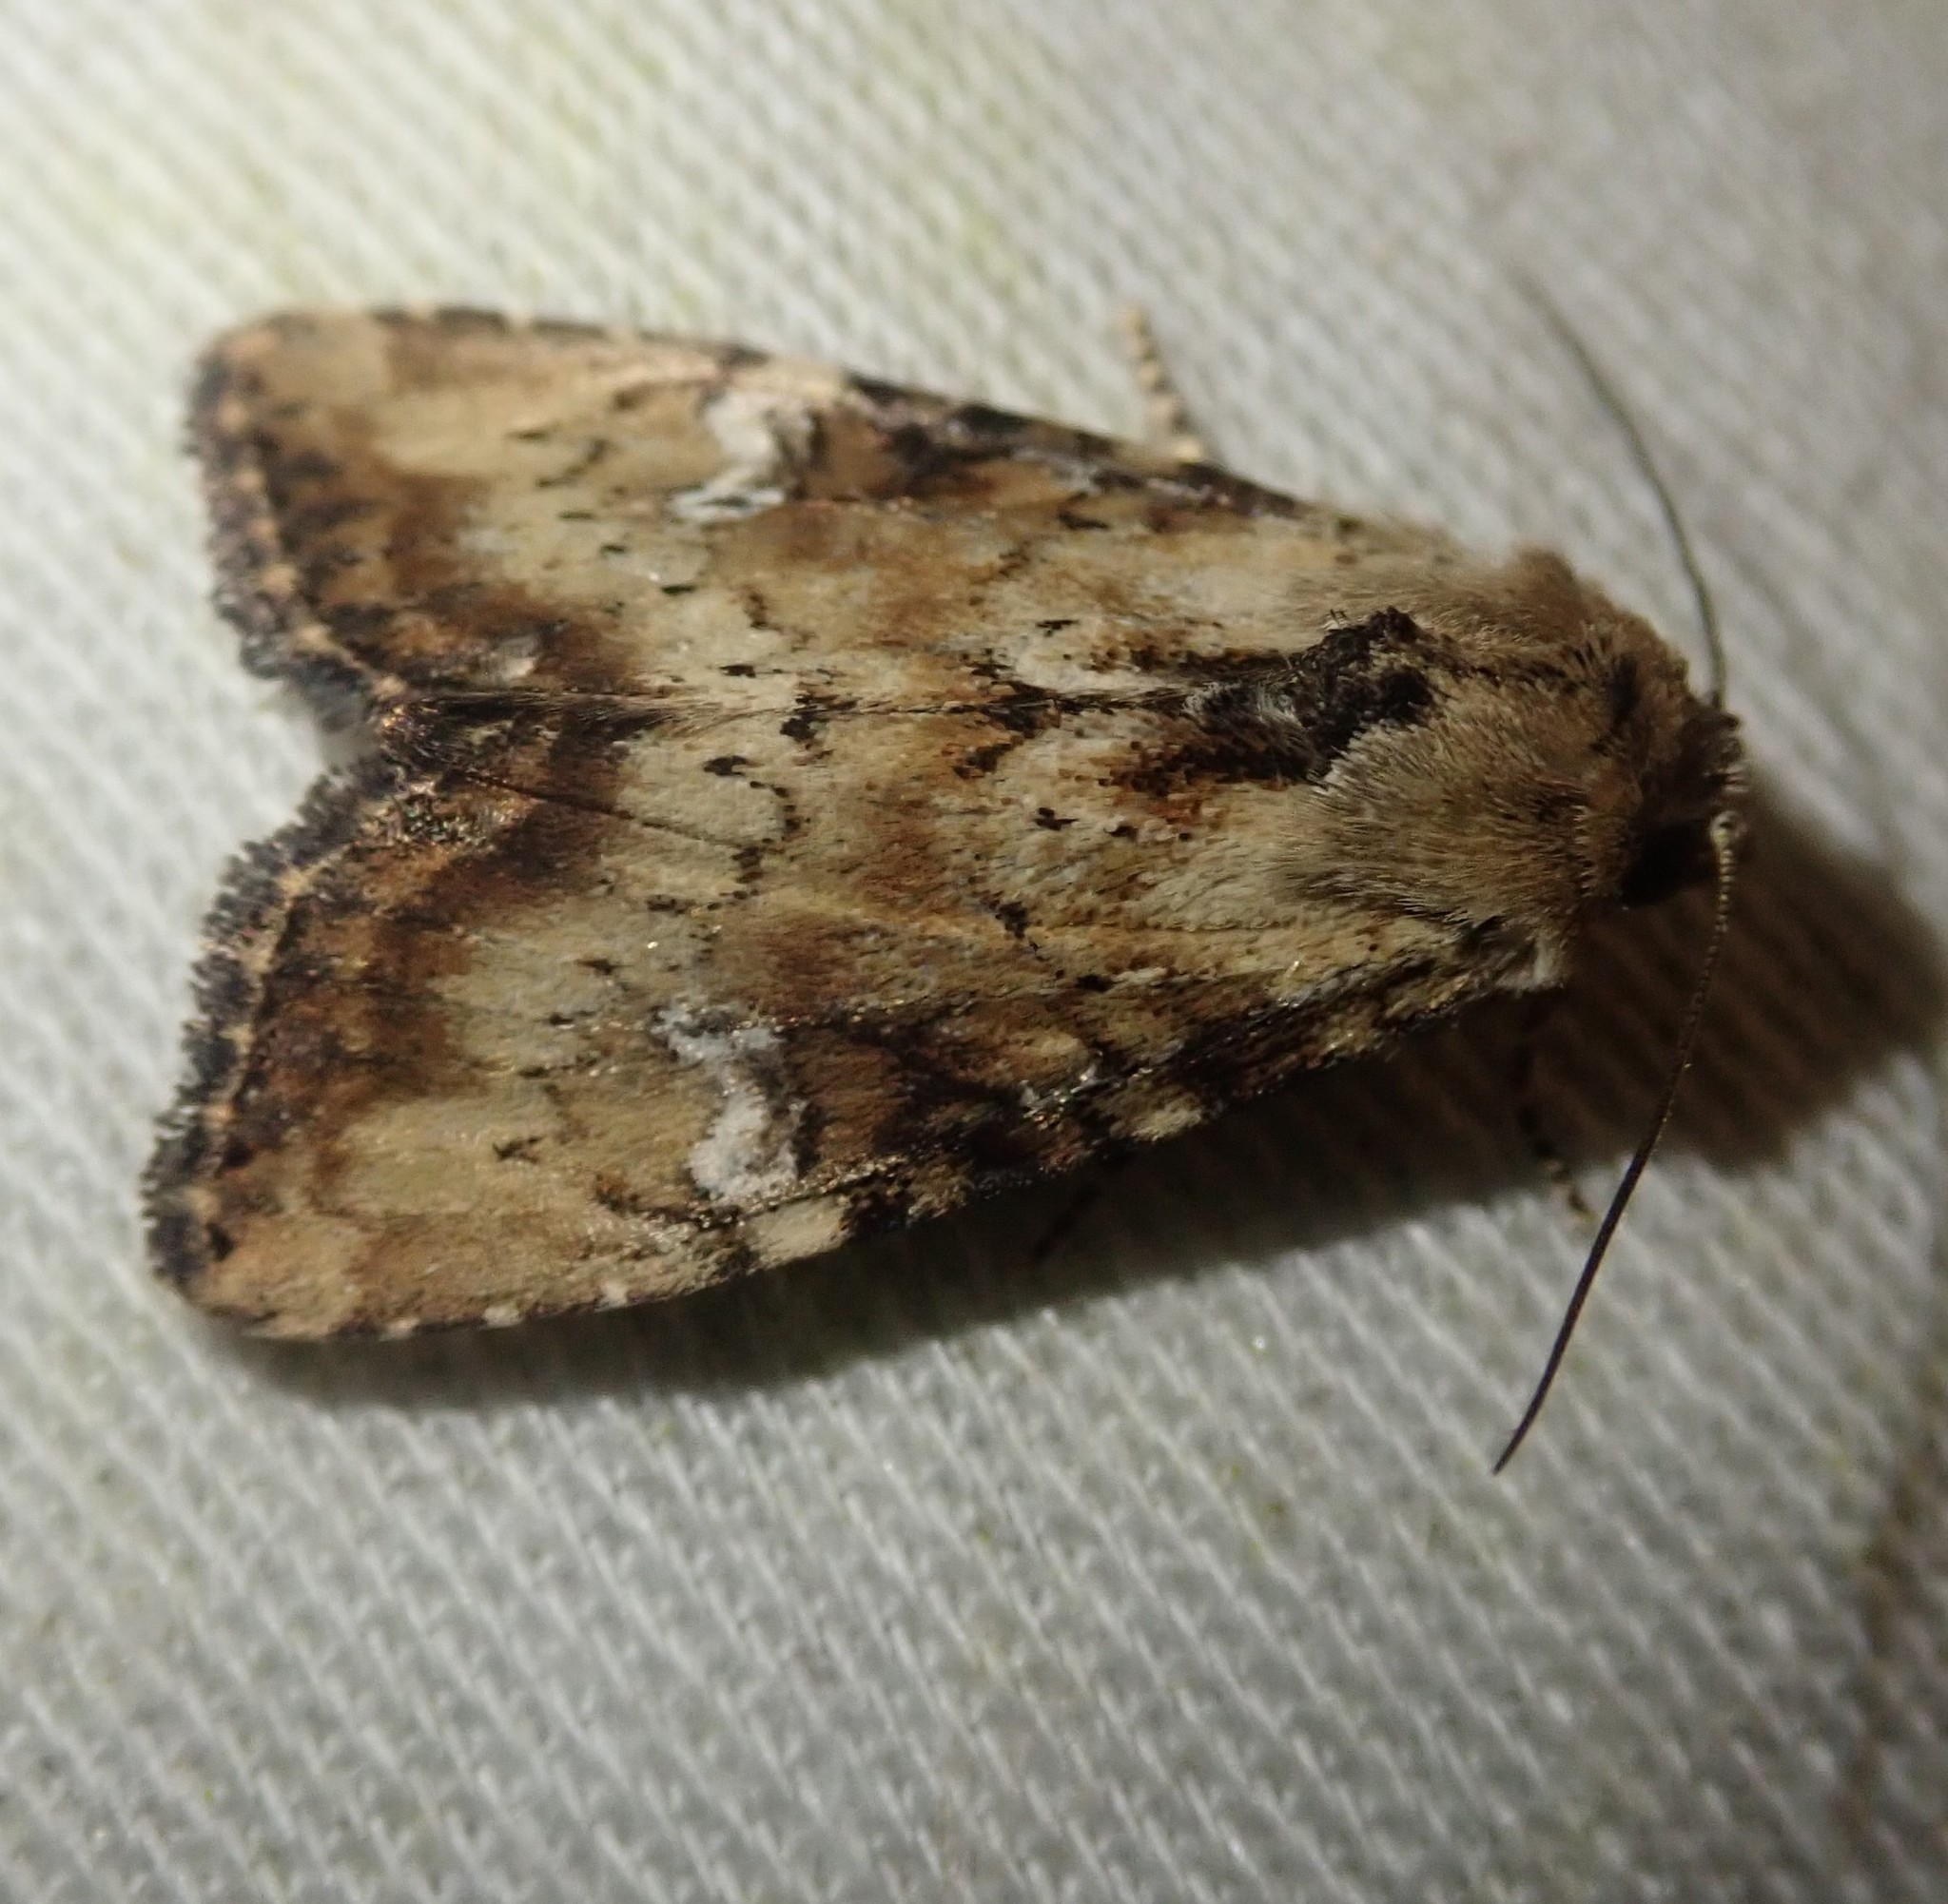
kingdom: Animalia
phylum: Arthropoda
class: Insecta
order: Lepidoptera
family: Noctuidae
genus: Loscopia
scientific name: Loscopia scolopacina
